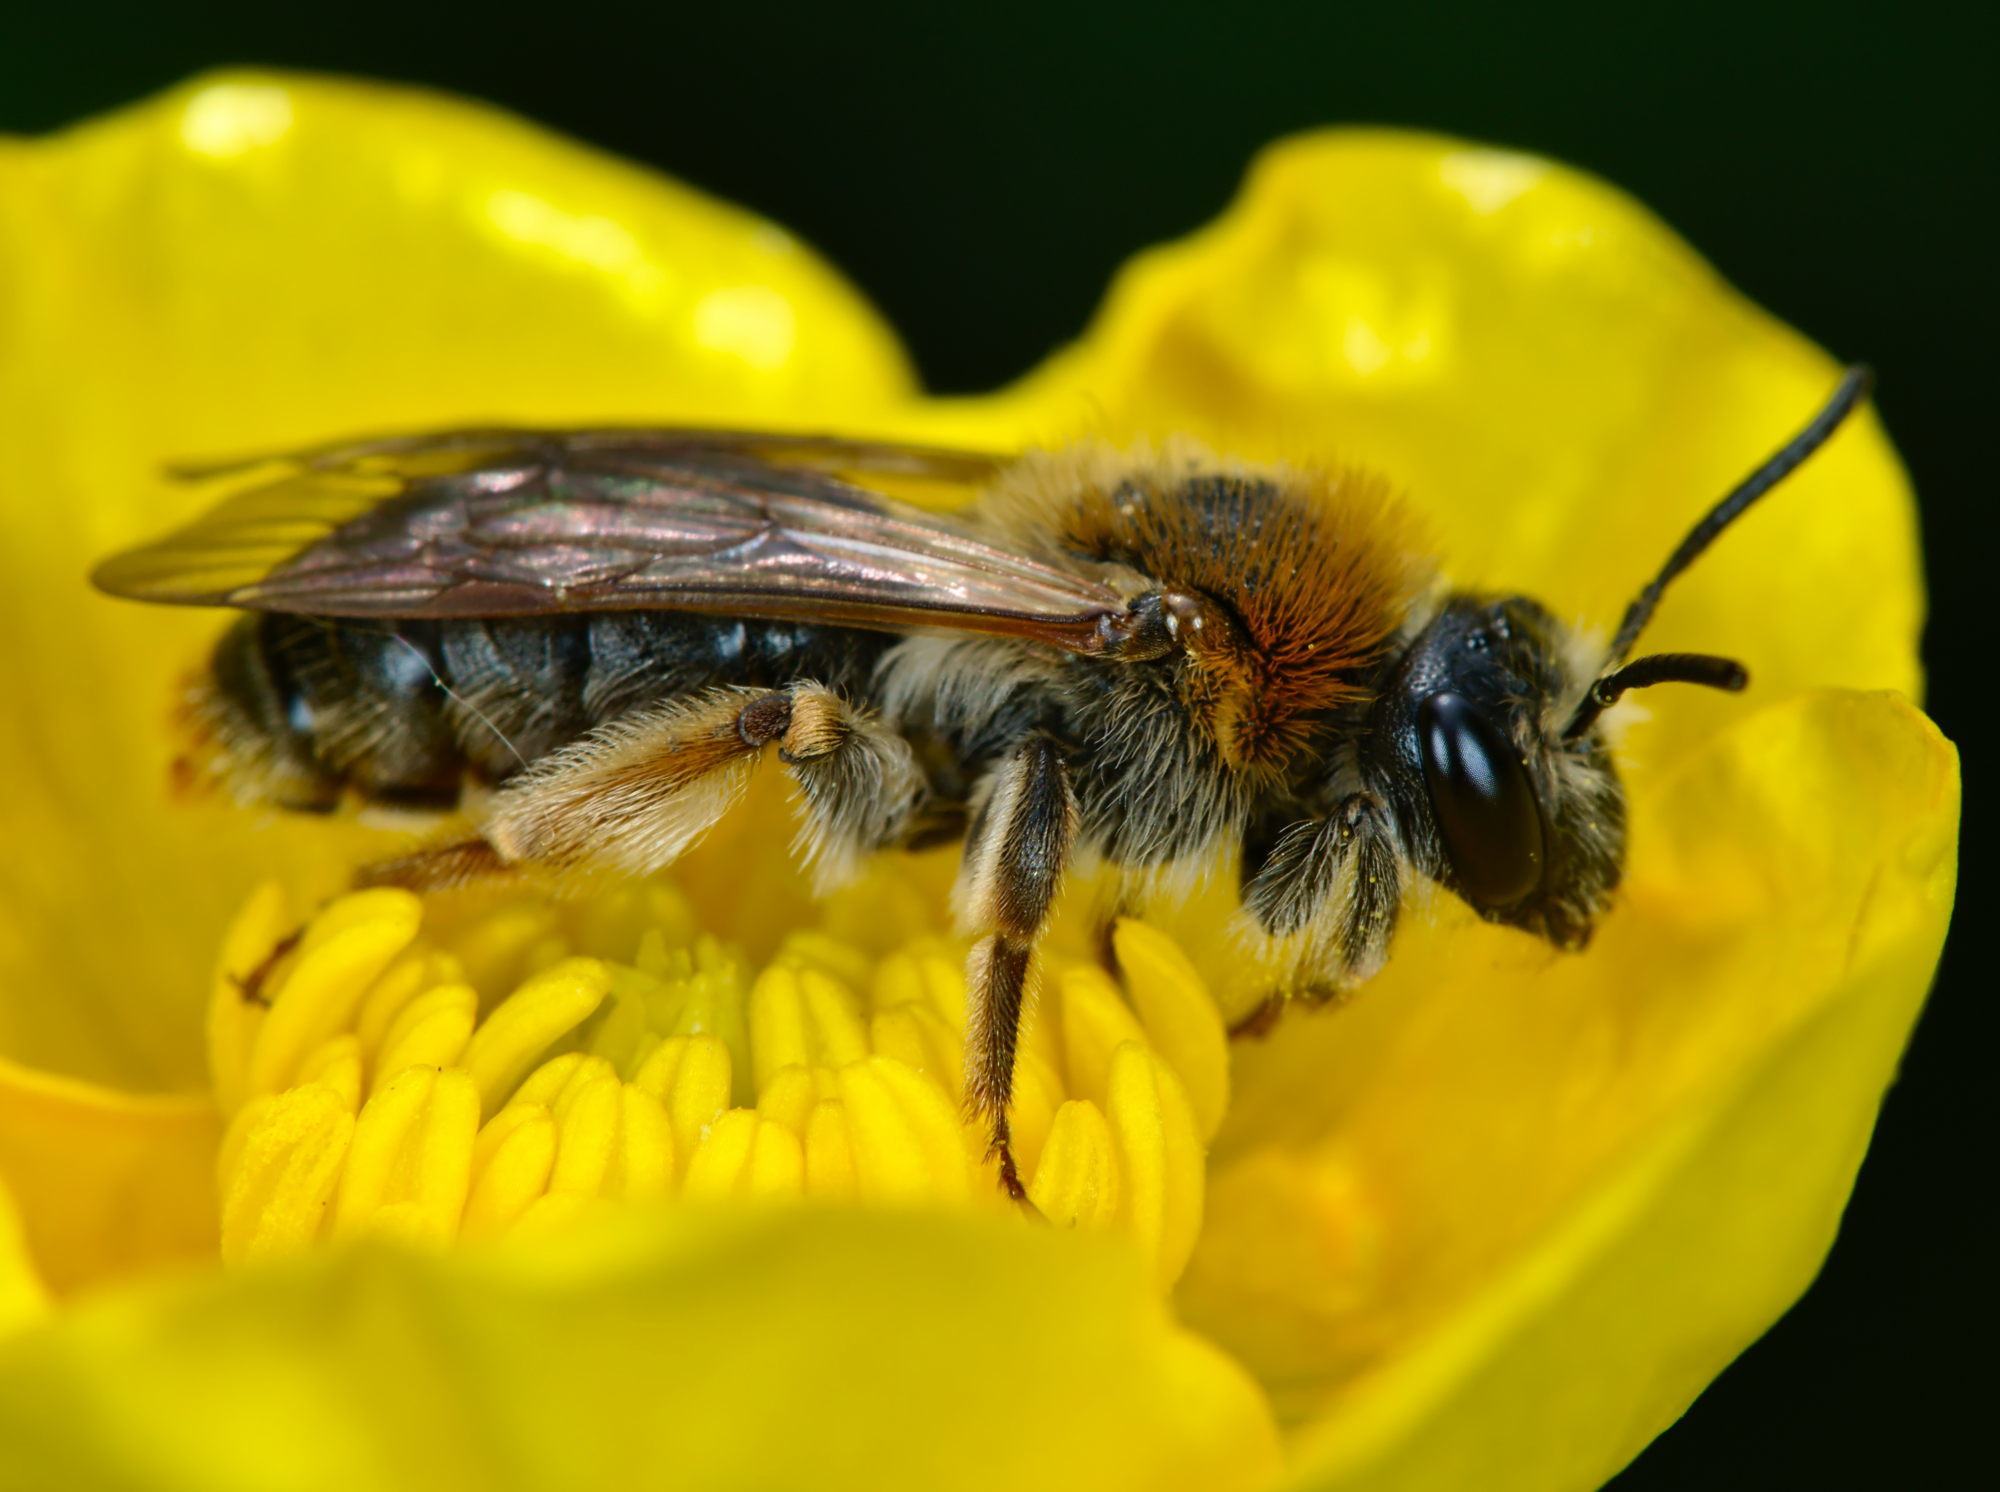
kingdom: Animalia
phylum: Arthropoda
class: Insecta
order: Hymenoptera
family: Andrenidae
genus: Andrena
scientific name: Andrena haemorrhoa
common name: Early mining bee
